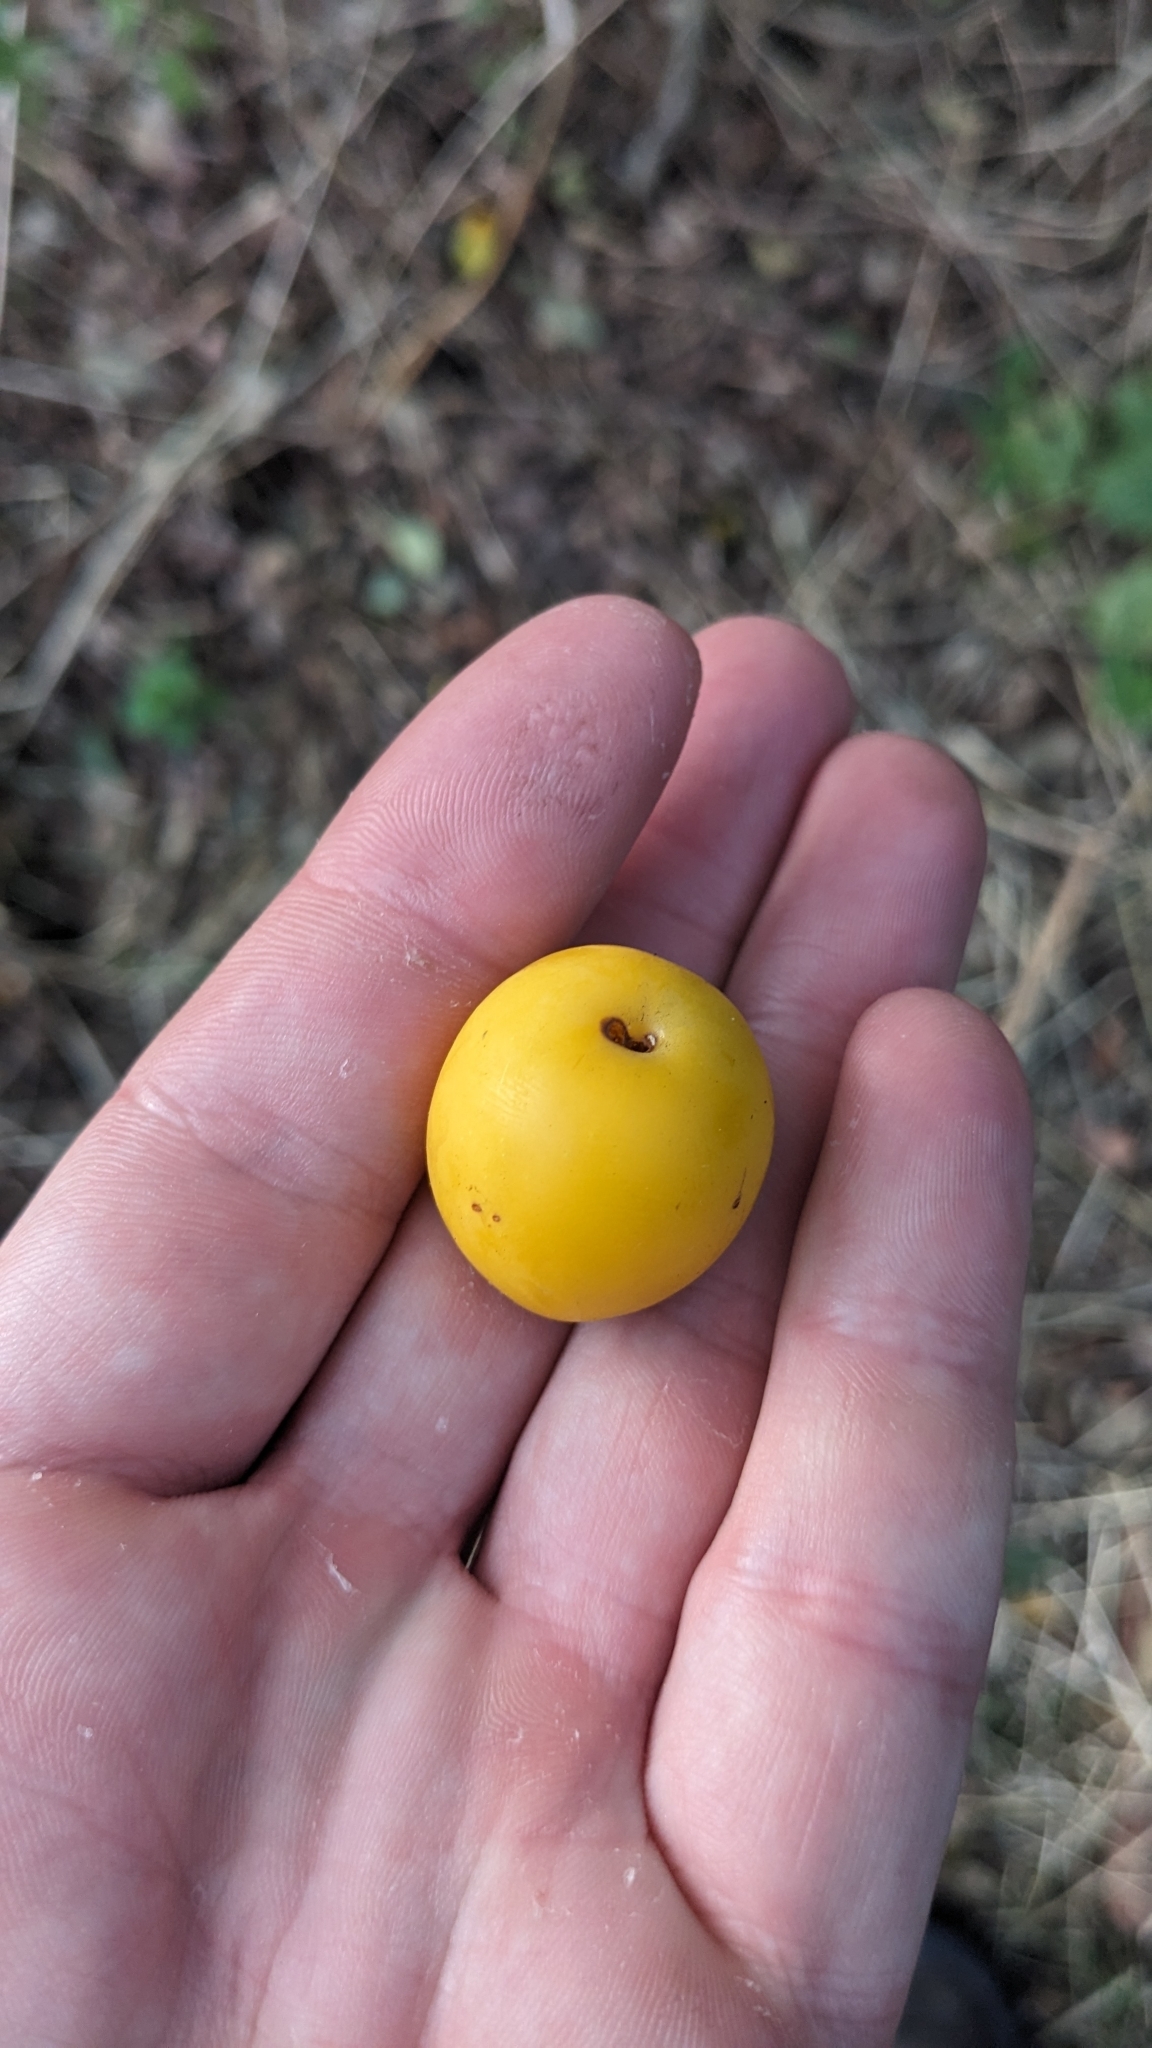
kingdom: Plantae
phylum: Tracheophyta
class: Magnoliopsida
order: Rosales
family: Rosaceae
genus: Prunus
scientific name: Prunus cerasifera
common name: Cherry plum
